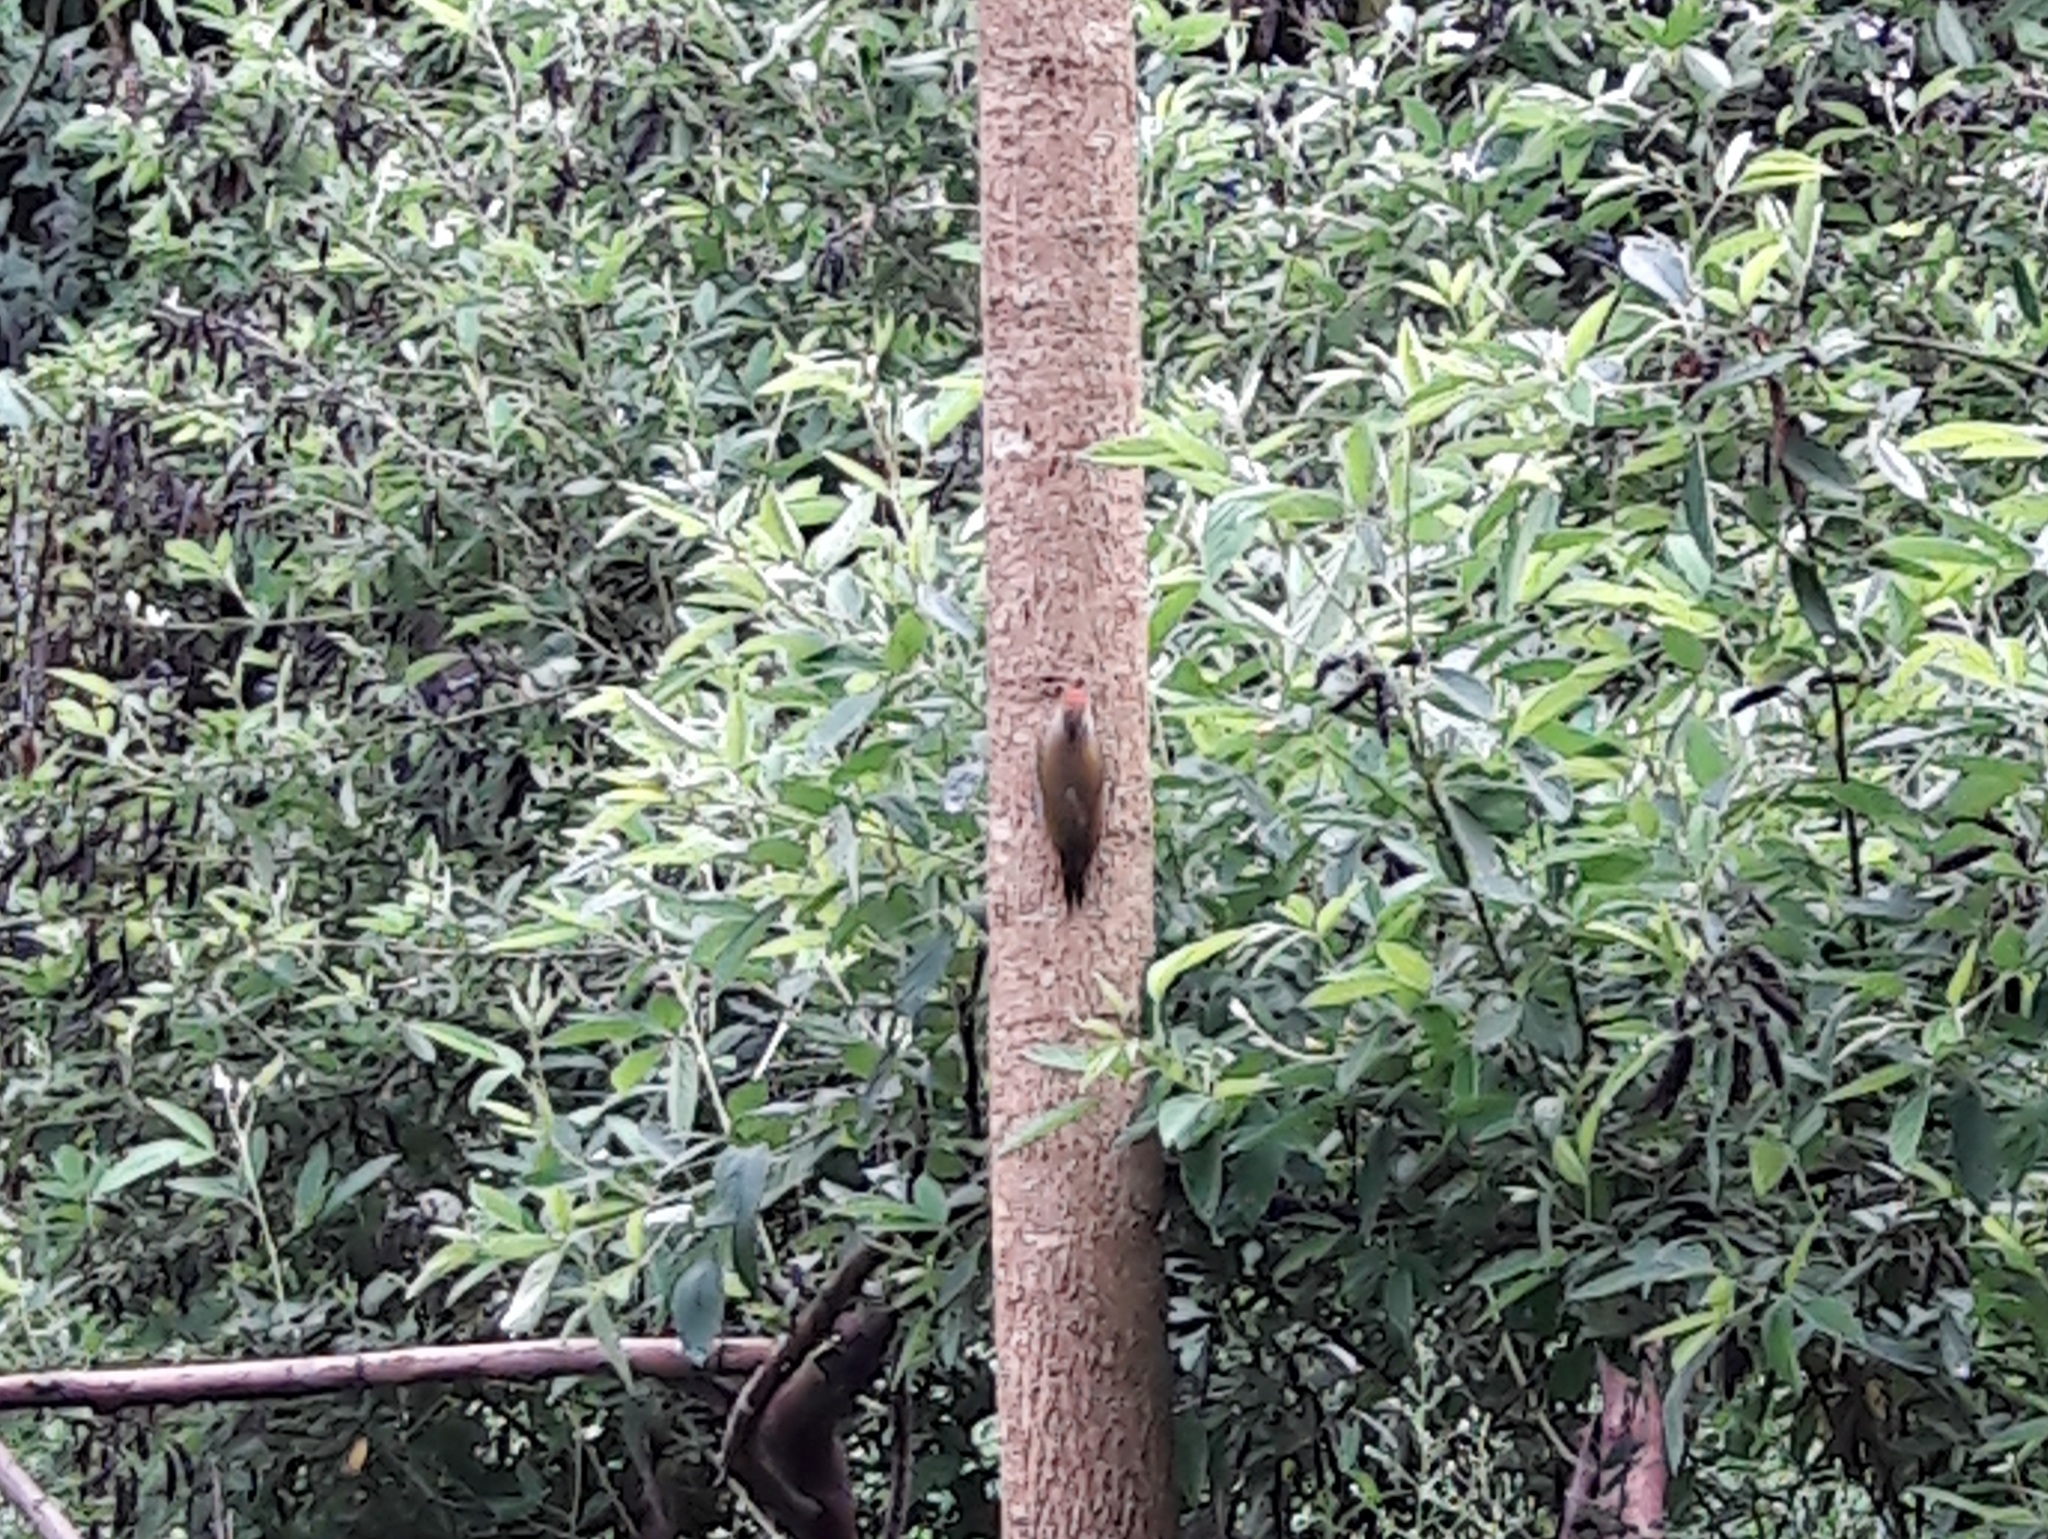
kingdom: Animalia
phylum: Chordata
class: Aves
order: Piciformes
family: Picidae
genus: Veniliornis
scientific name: Veniliornis passerinus
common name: Little woodpecker
